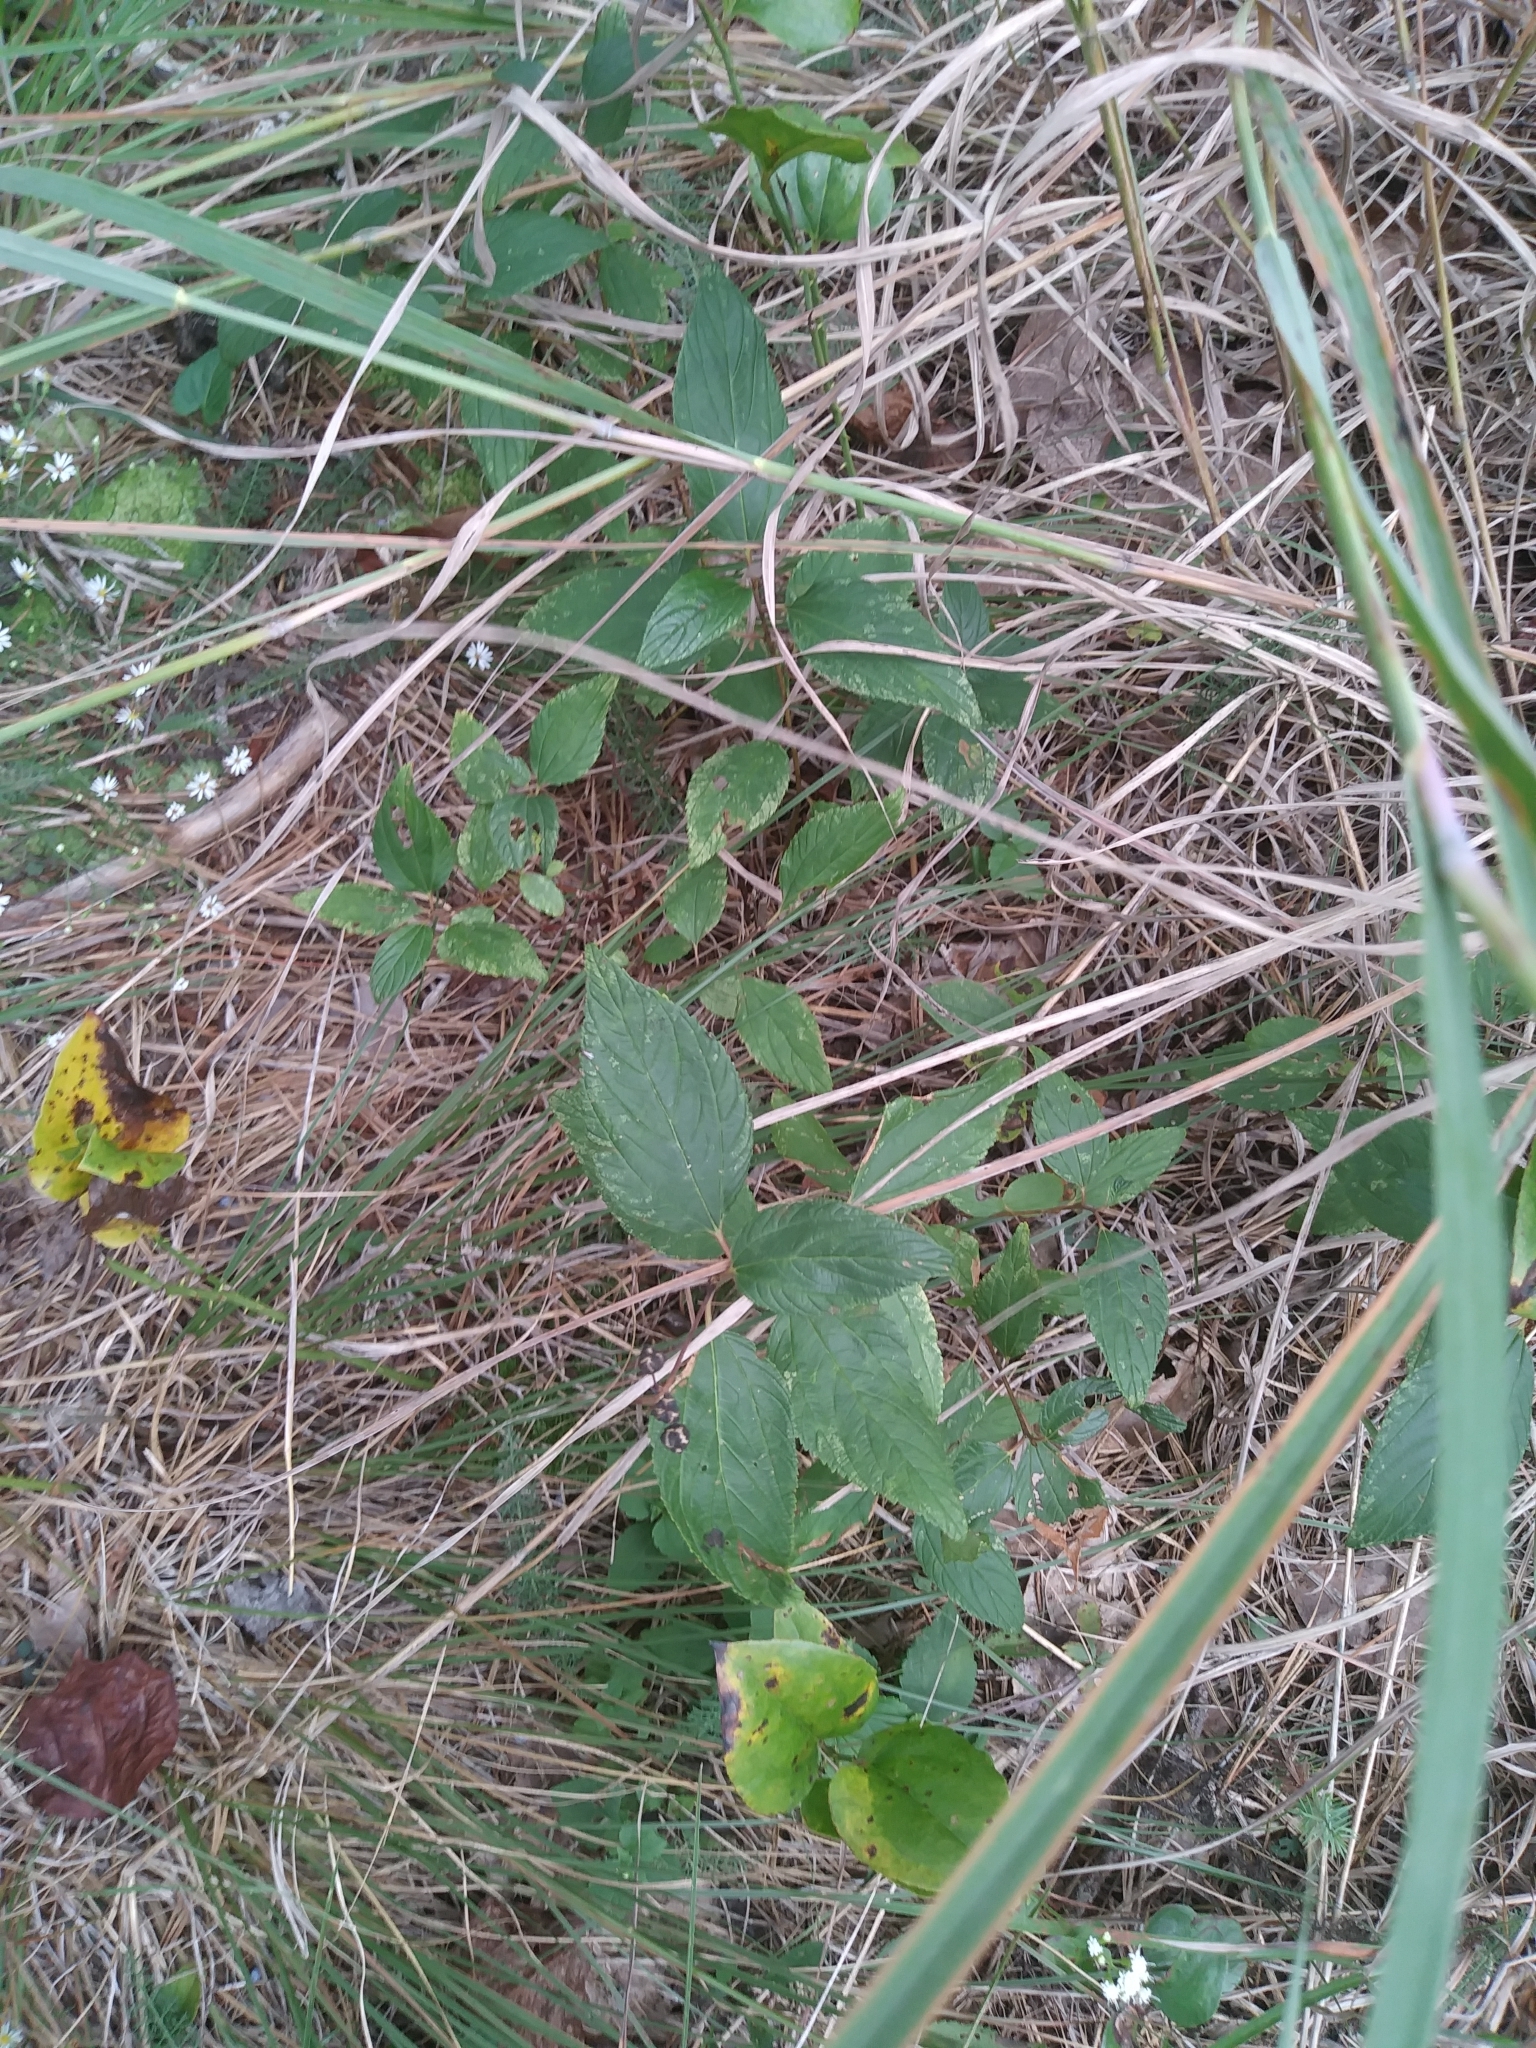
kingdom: Plantae
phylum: Tracheophyta
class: Magnoliopsida
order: Rosales
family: Rhamnaceae
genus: Ceanothus
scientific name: Ceanothus americanus
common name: Redroot
